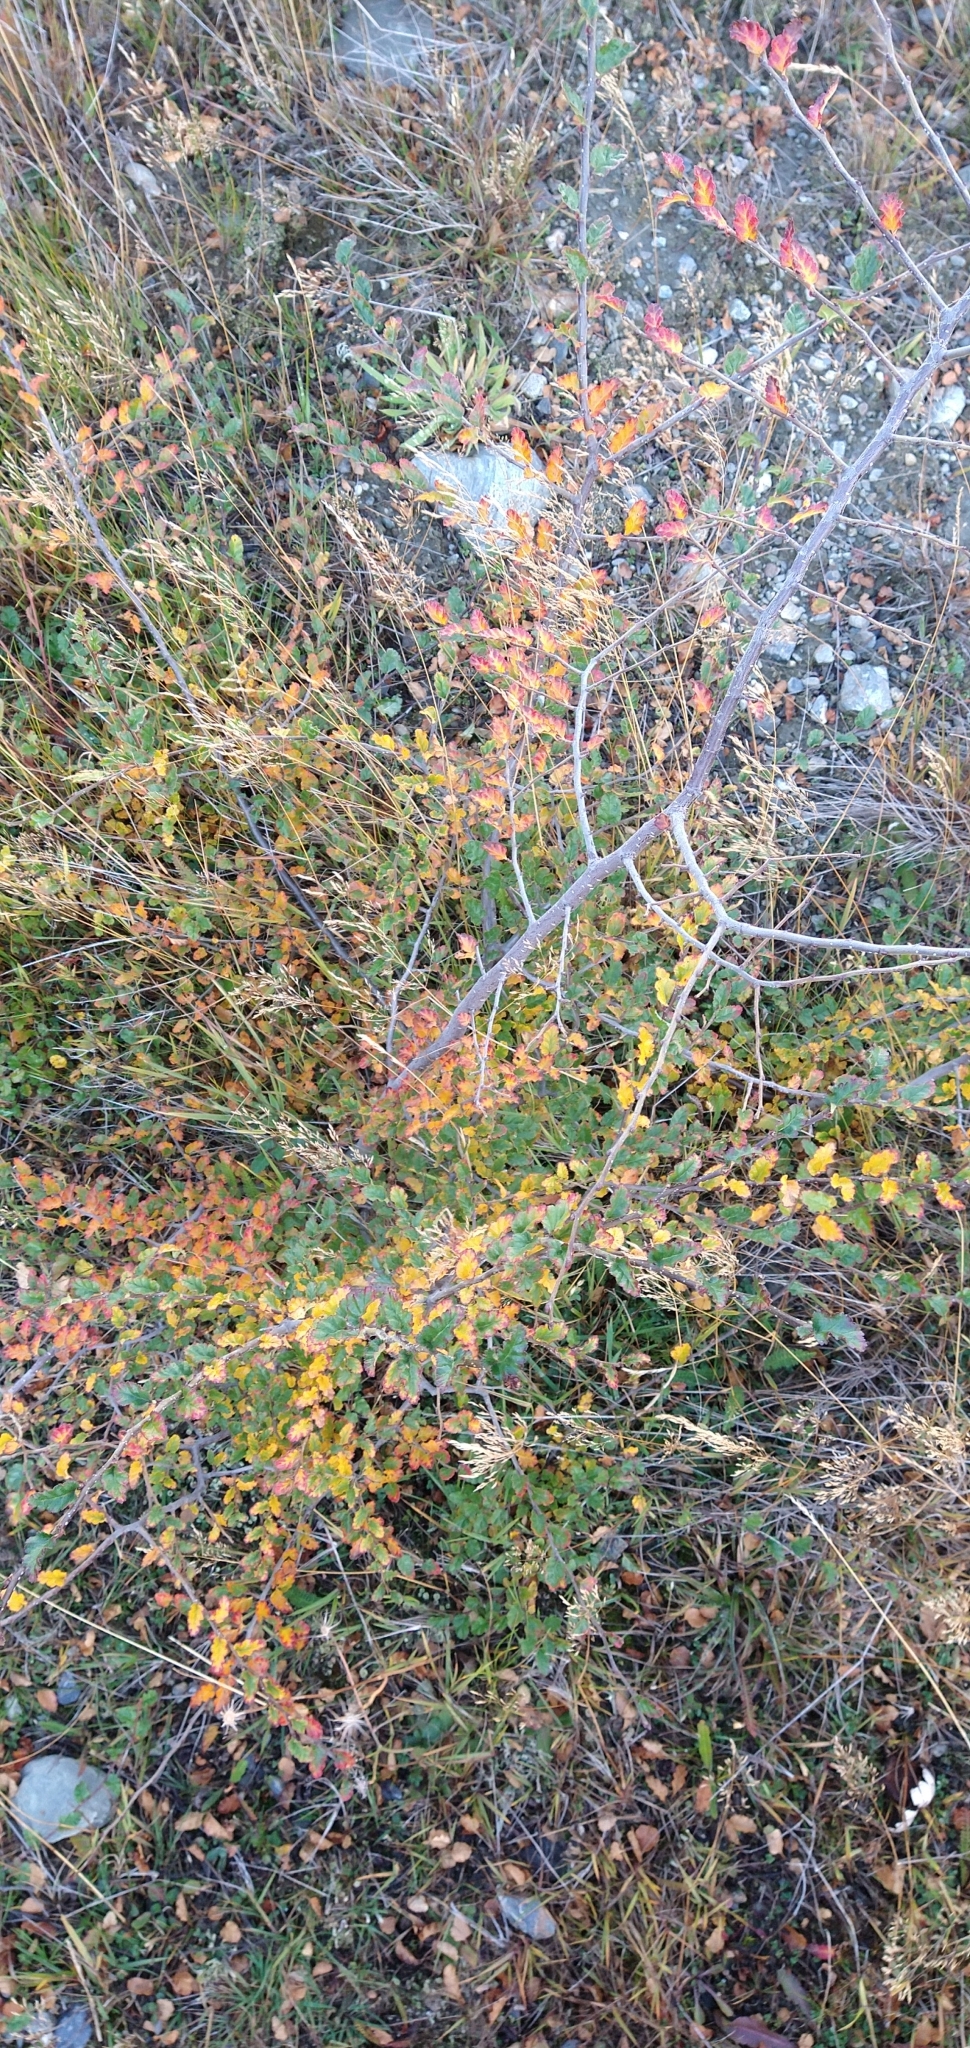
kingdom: Plantae
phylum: Tracheophyta
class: Magnoliopsida
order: Fagales
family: Nothofagaceae
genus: Nothofagus
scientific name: Nothofagus antarctica
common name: Antarctic beech
